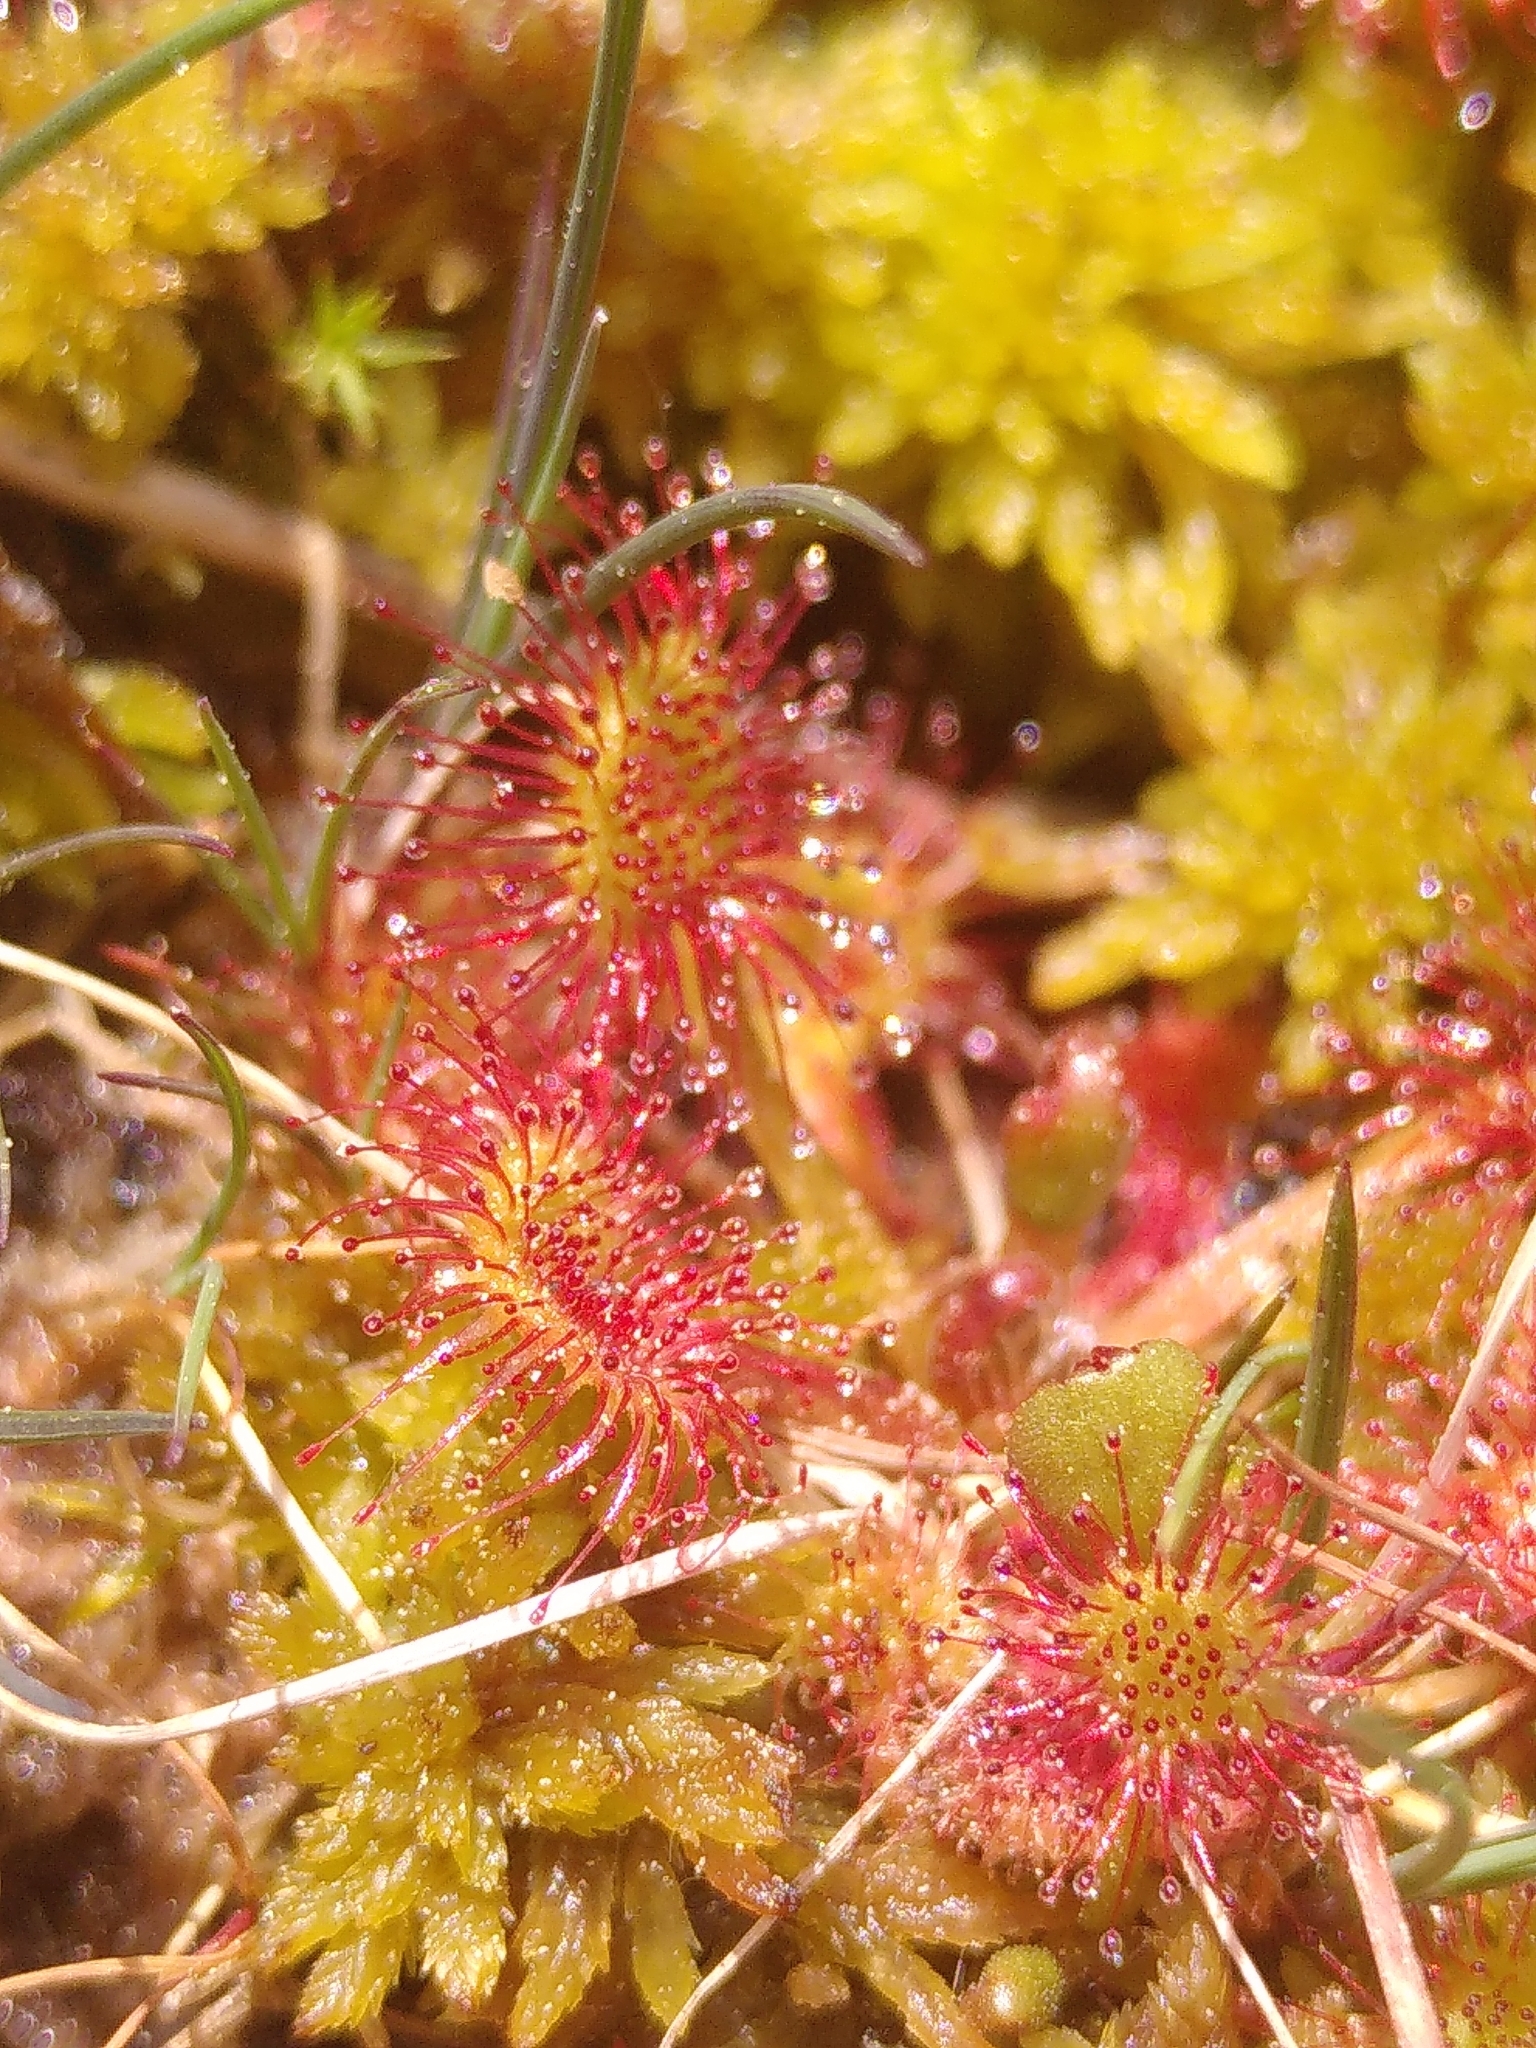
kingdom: Plantae
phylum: Tracheophyta
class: Magnoliopsida
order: Caryophyllales
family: Droseraceae
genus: Drosera
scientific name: Drosera rotundifolia
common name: Round-leaved sundew
